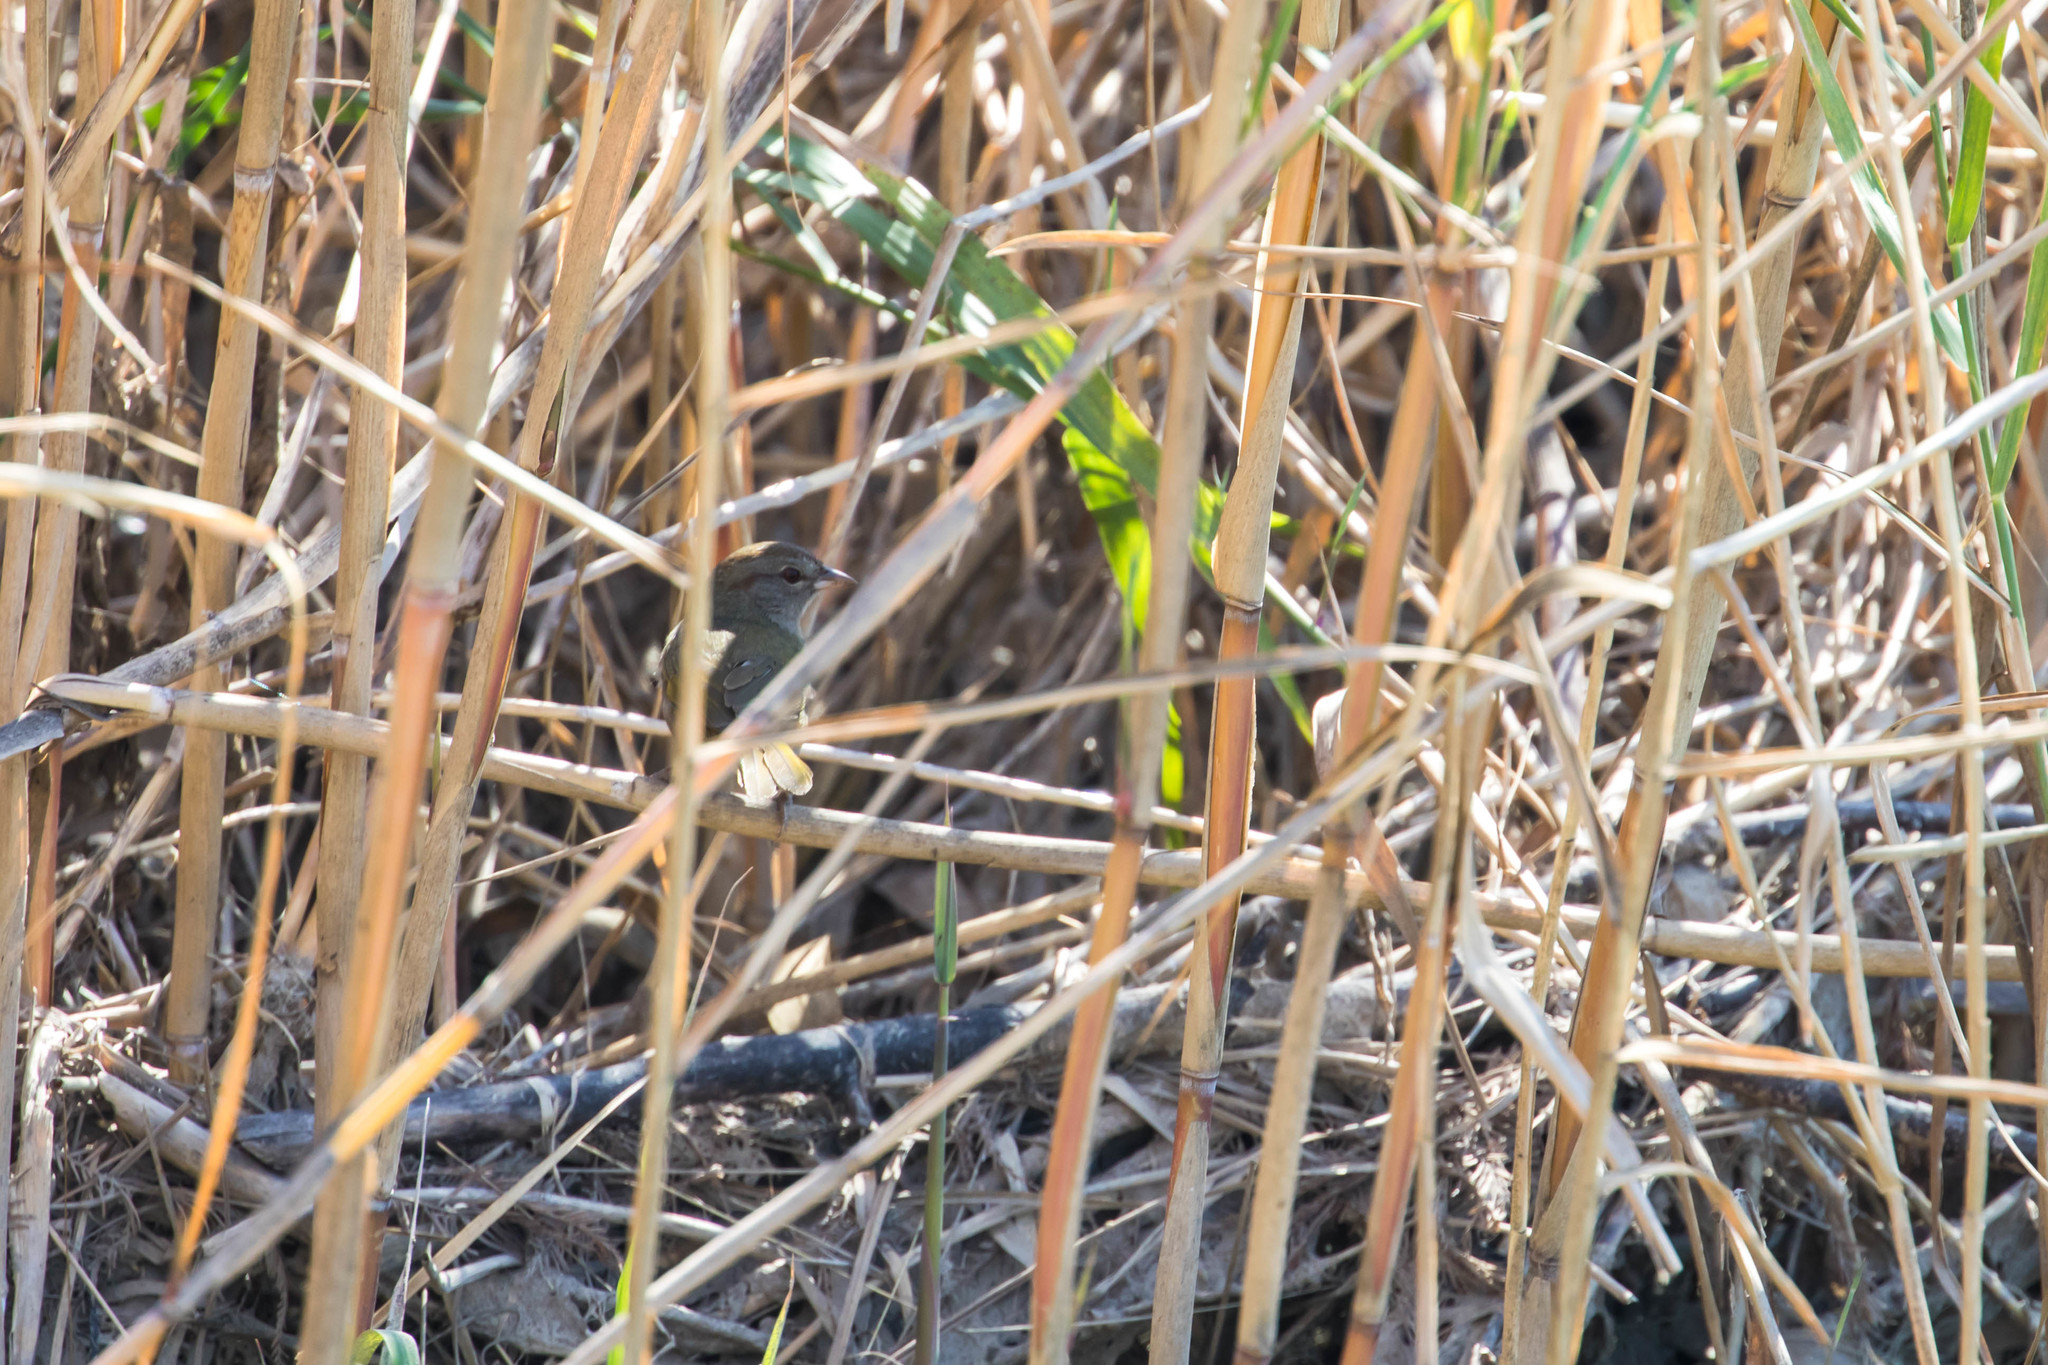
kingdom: Animalia
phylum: Chordata
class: Aves
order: Passeriformes
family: Passerellidae
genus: Arremonops
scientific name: Arremonops rufivirgatus
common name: Olive sparrow
